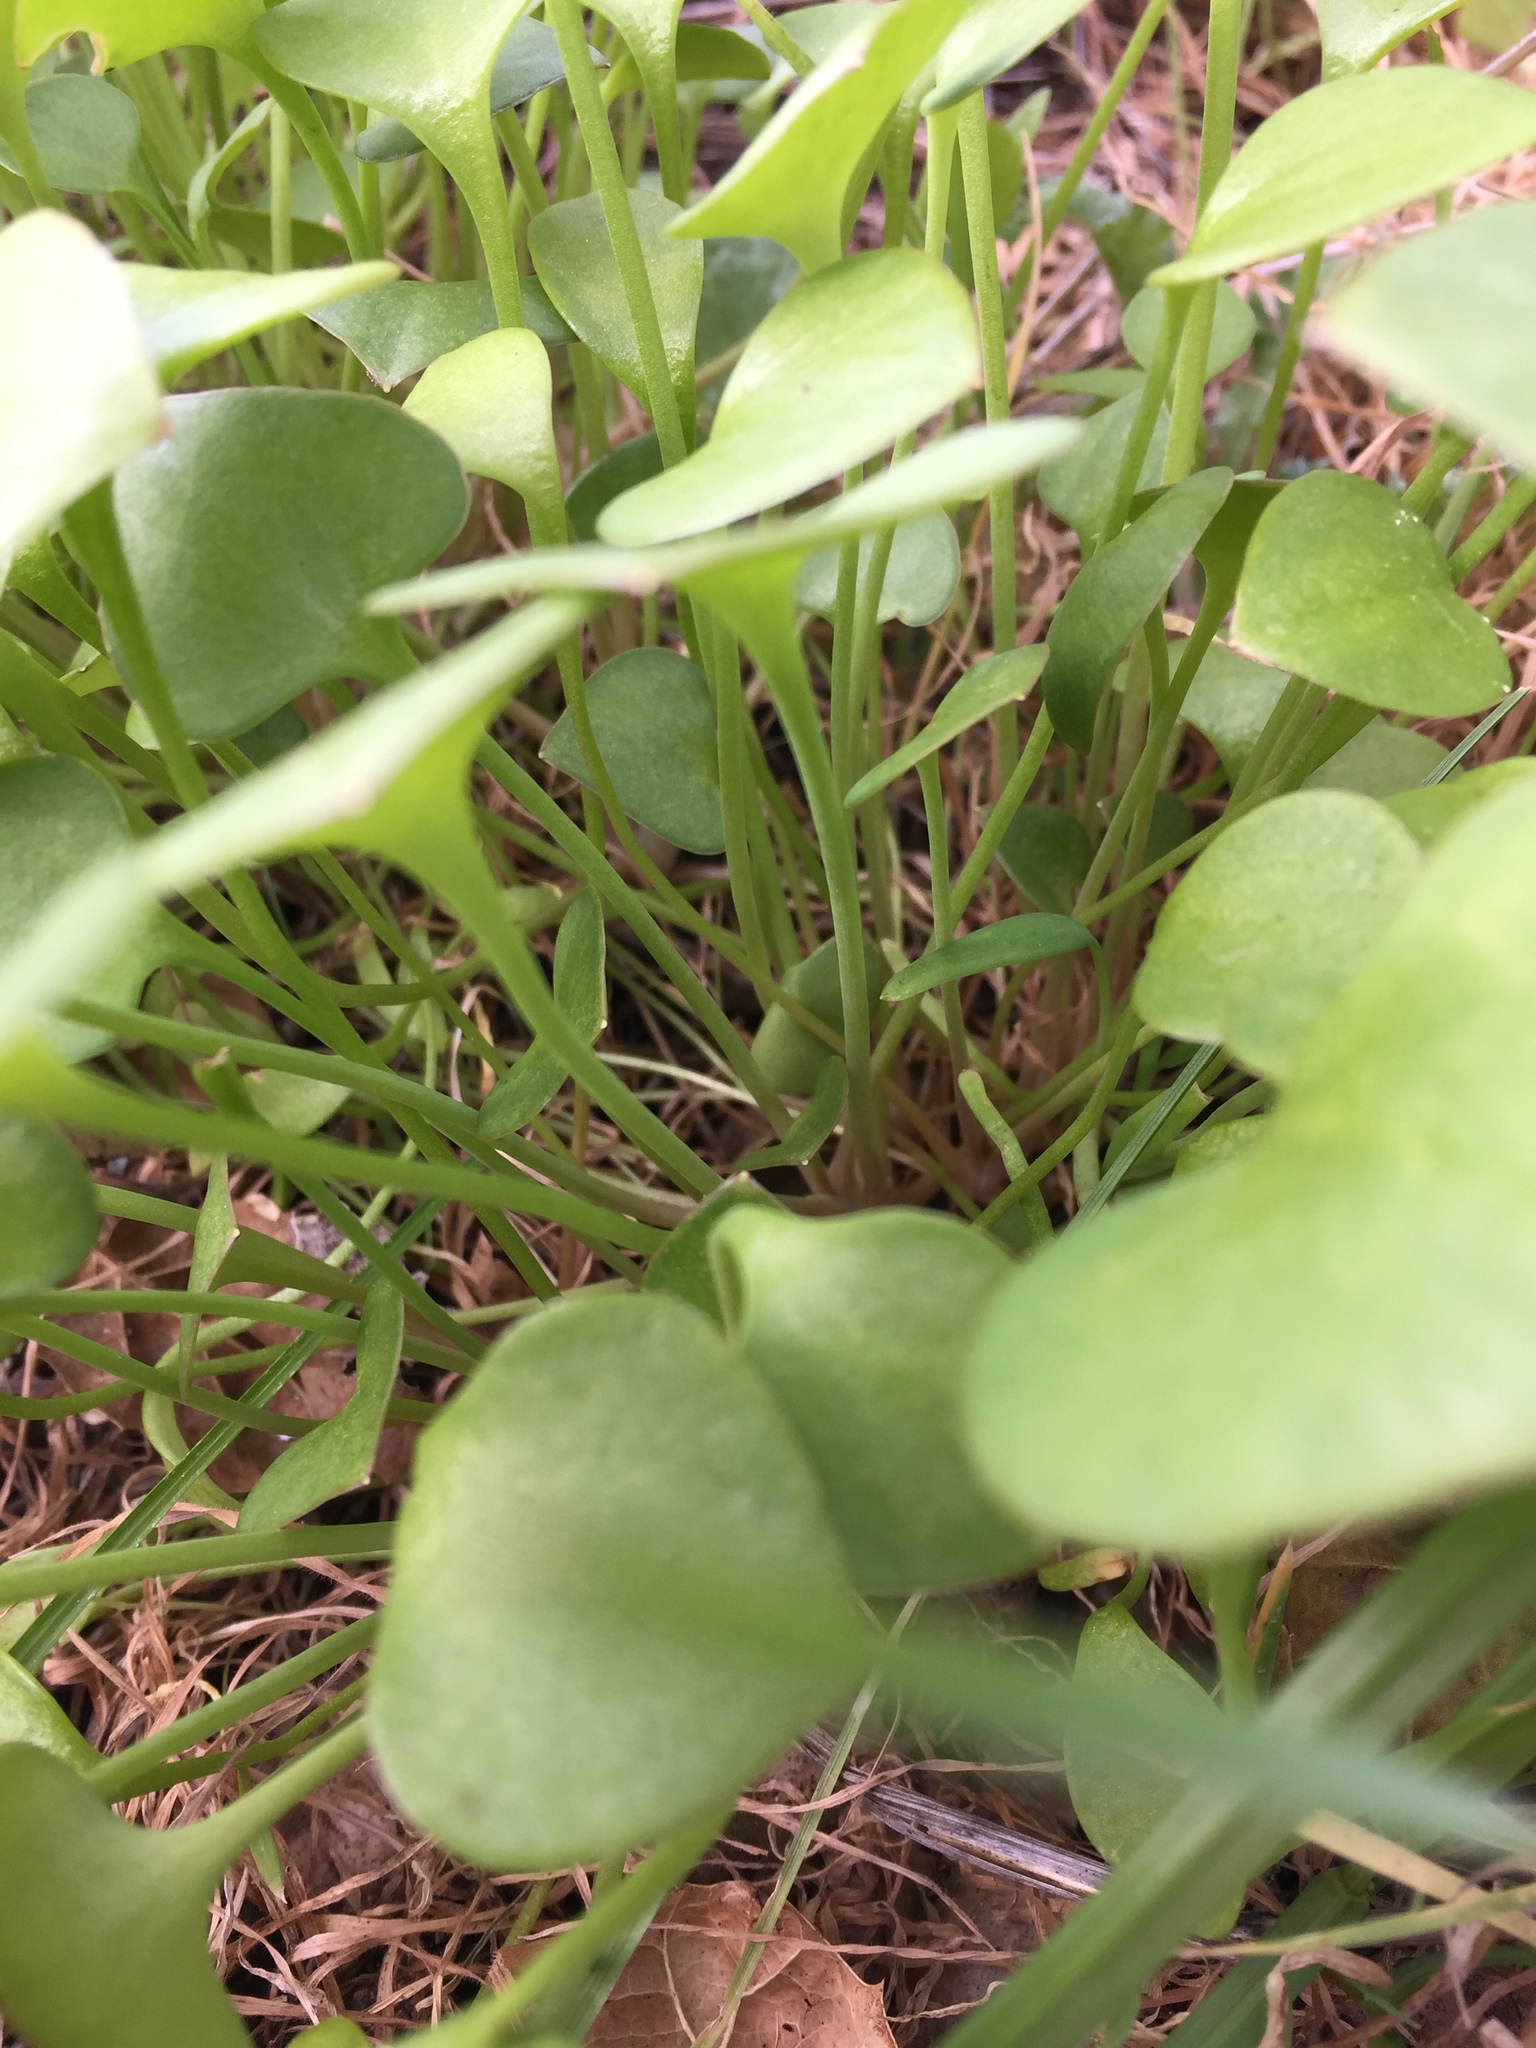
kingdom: Plantae
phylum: Tracheophyta
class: Magnoliopsida
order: Caryophyllales
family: Montiaceae
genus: Claytonia
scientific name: Claytonia perfoliata
